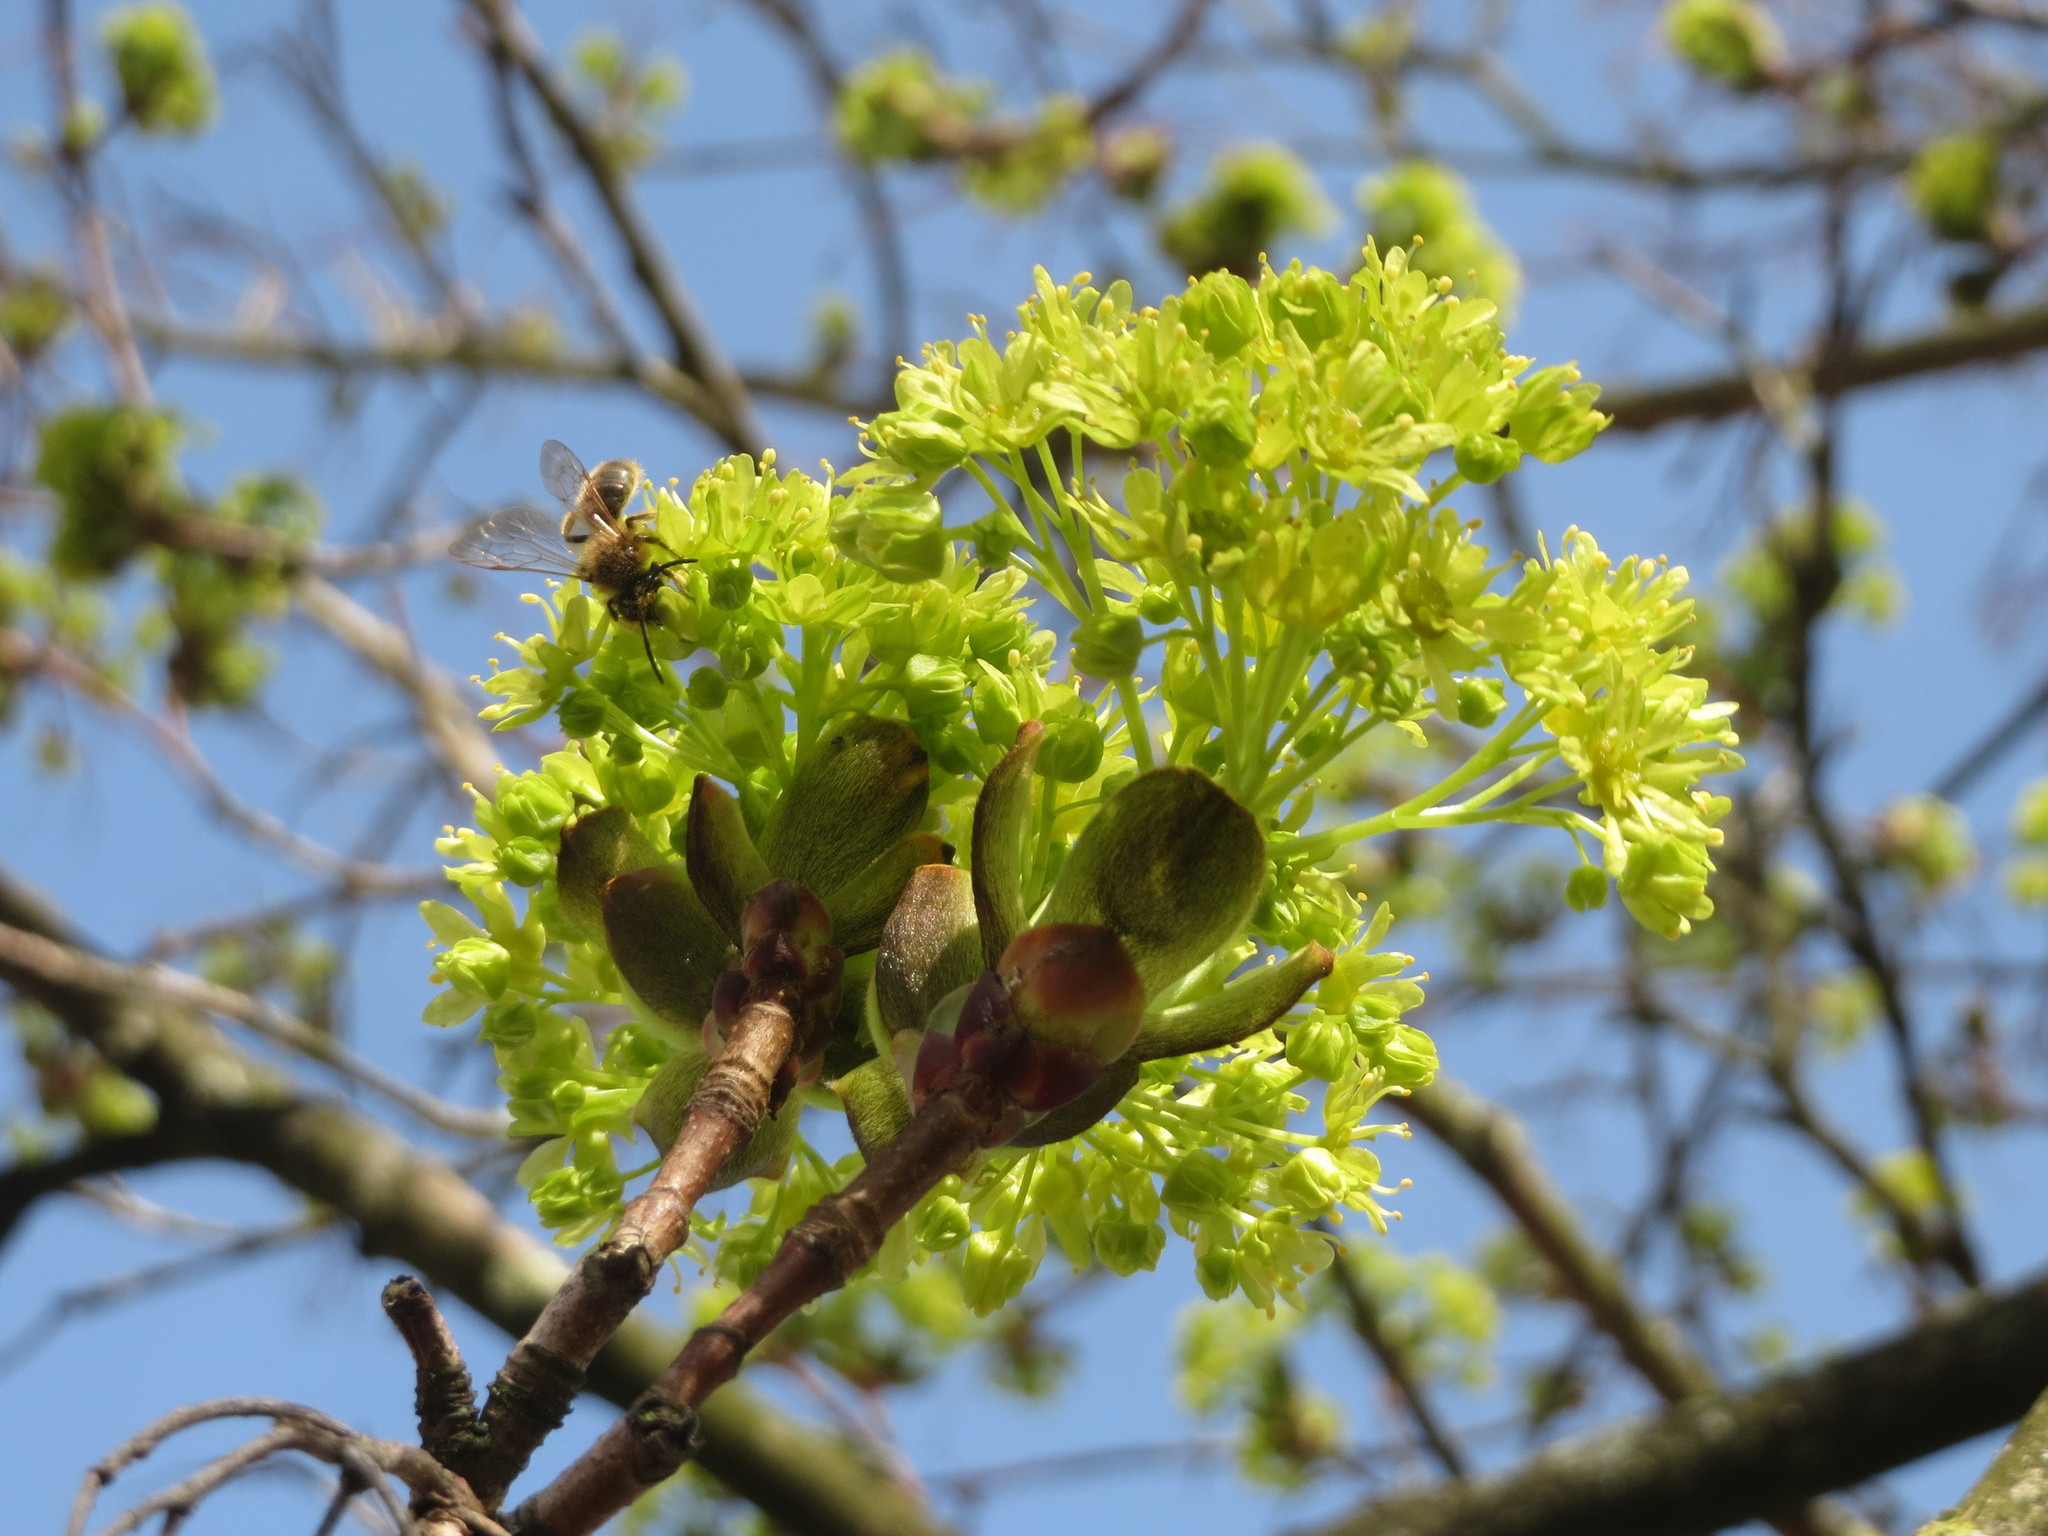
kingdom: Plantae
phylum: Tracheophyta
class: Magnoliopsida
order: Sapindales
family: Sapindaceae
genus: Acer
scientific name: Acer platanoides
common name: Norway maple
